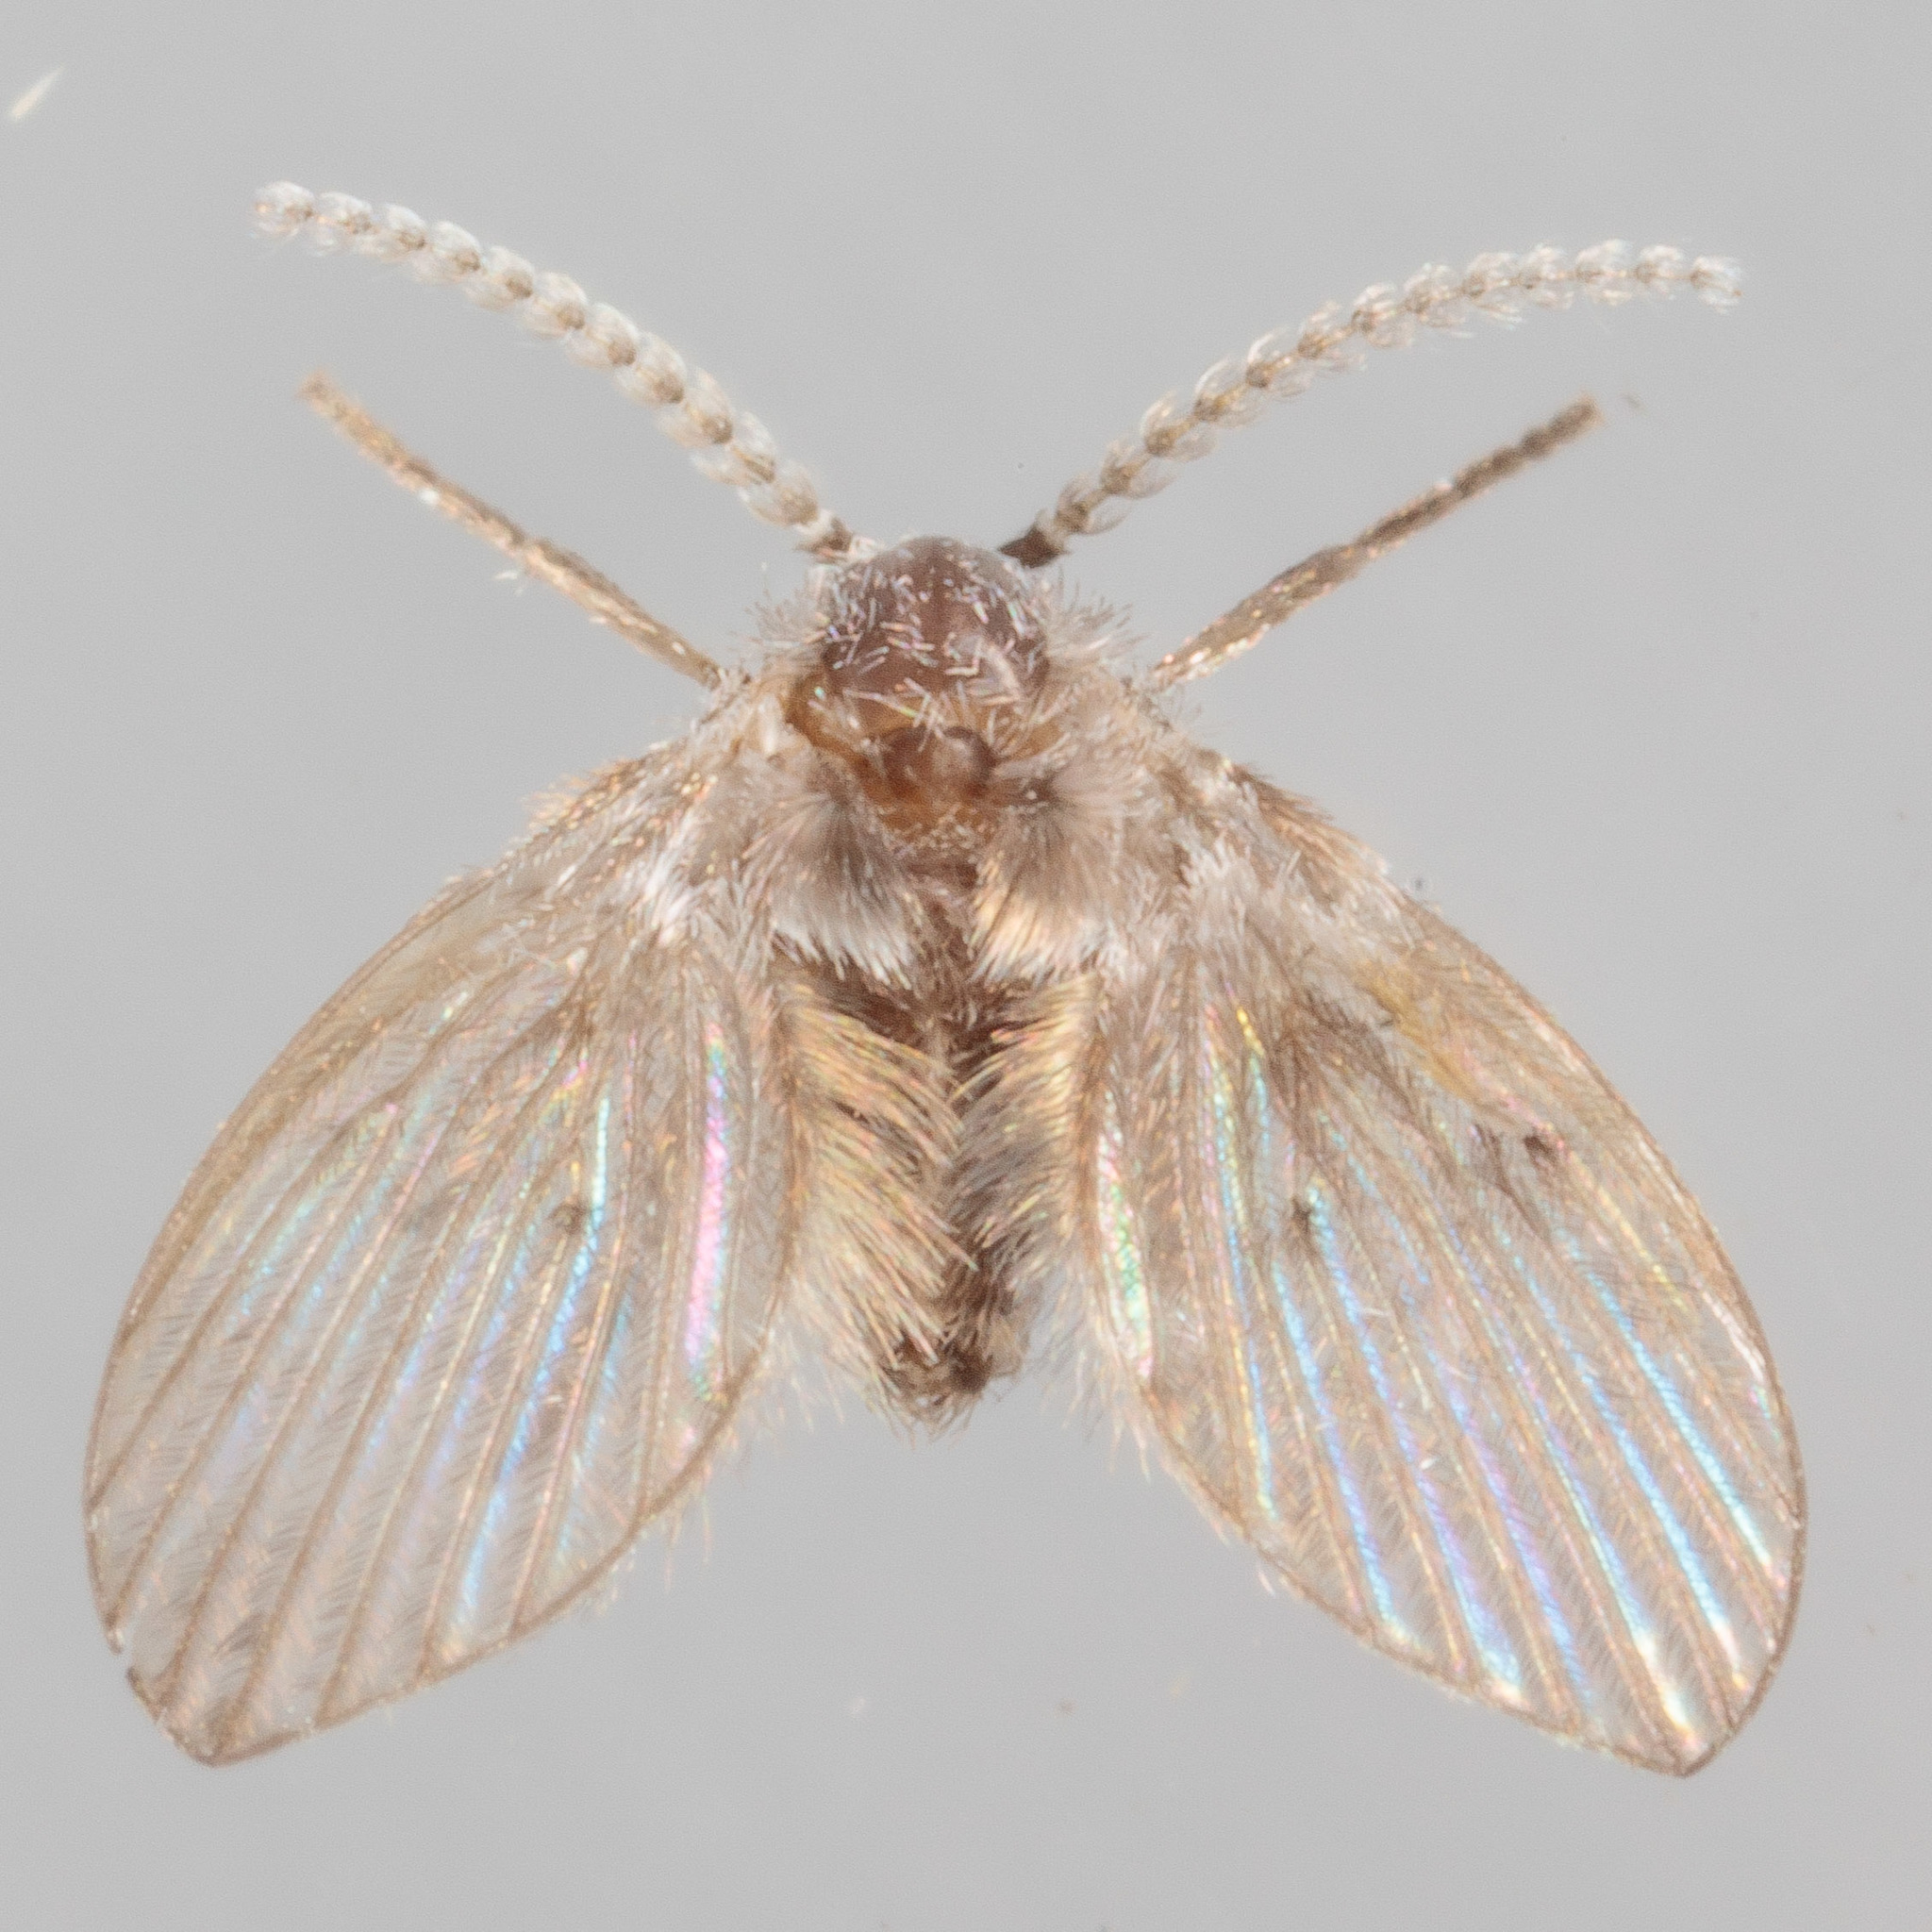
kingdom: Animalia
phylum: Arthropoda
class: Insecta
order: Diptera
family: Psychodidae
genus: Clogmia
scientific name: Clogmia albipunctatus
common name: White-spotted moth fly
